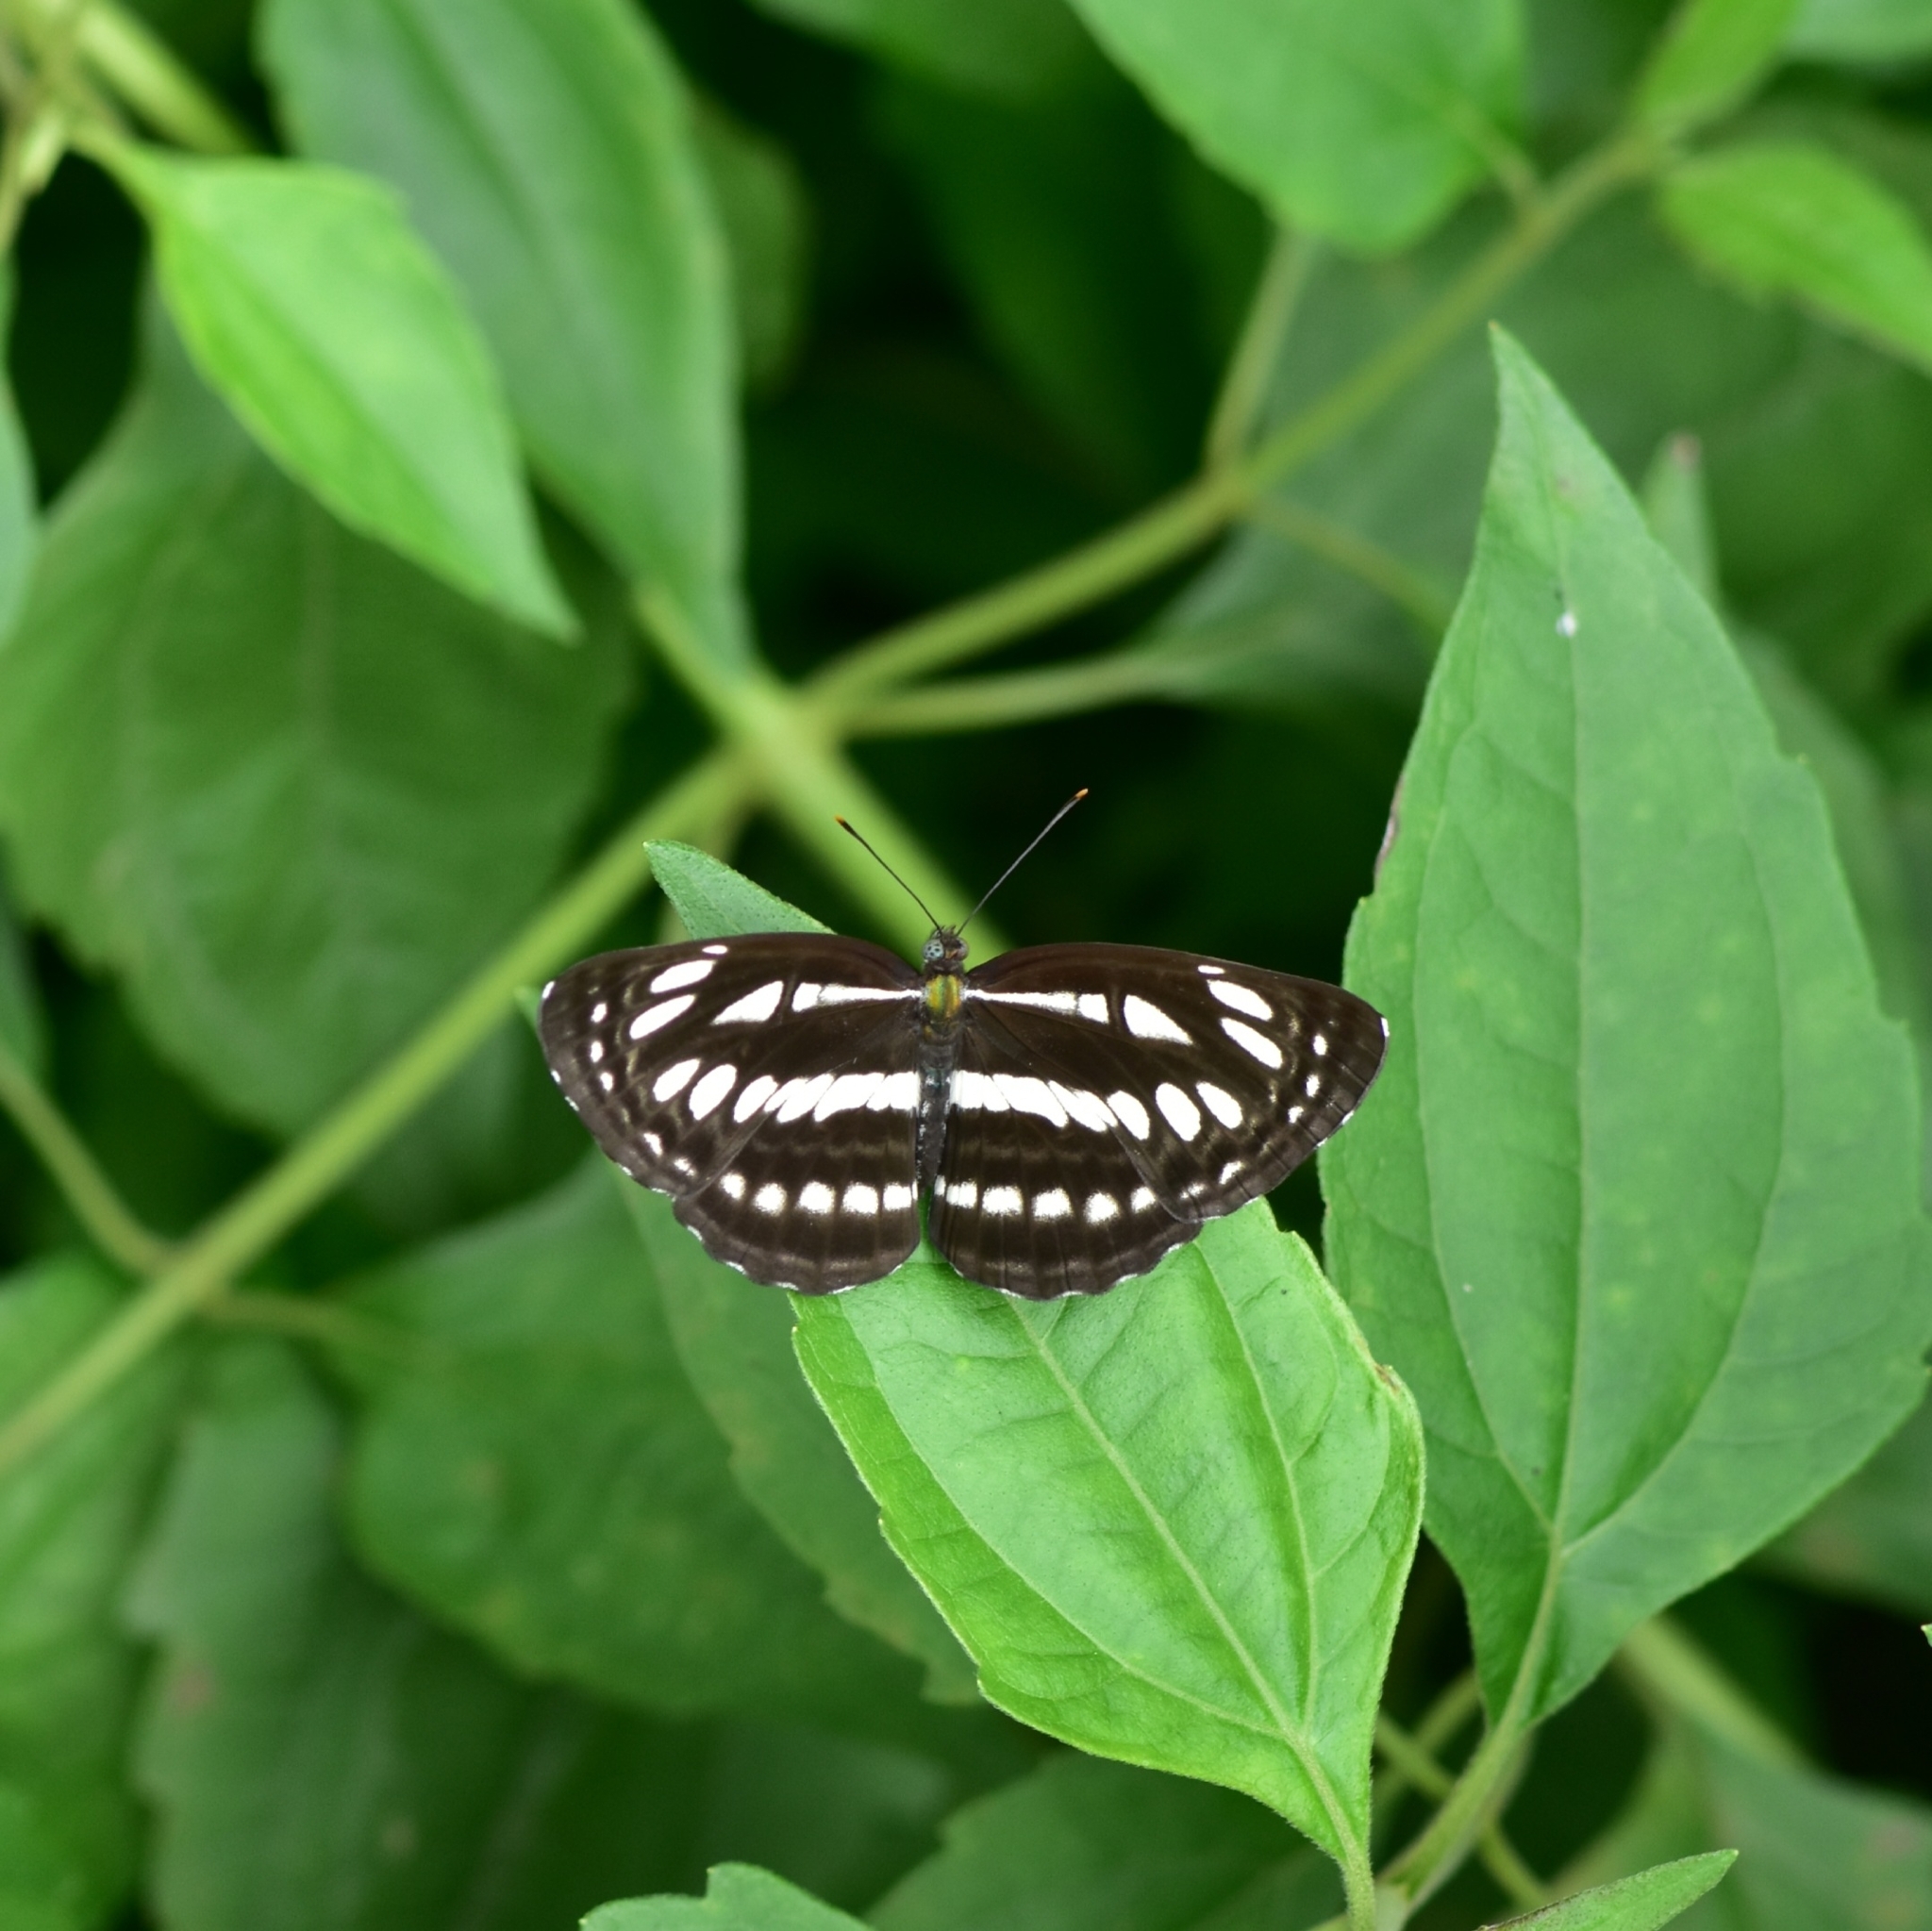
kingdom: Animalia
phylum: Arthropoda
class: Insecta
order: Lepidoptera
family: Nymphalidae
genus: Neptis
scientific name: Neptis hylas
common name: Common sailer
